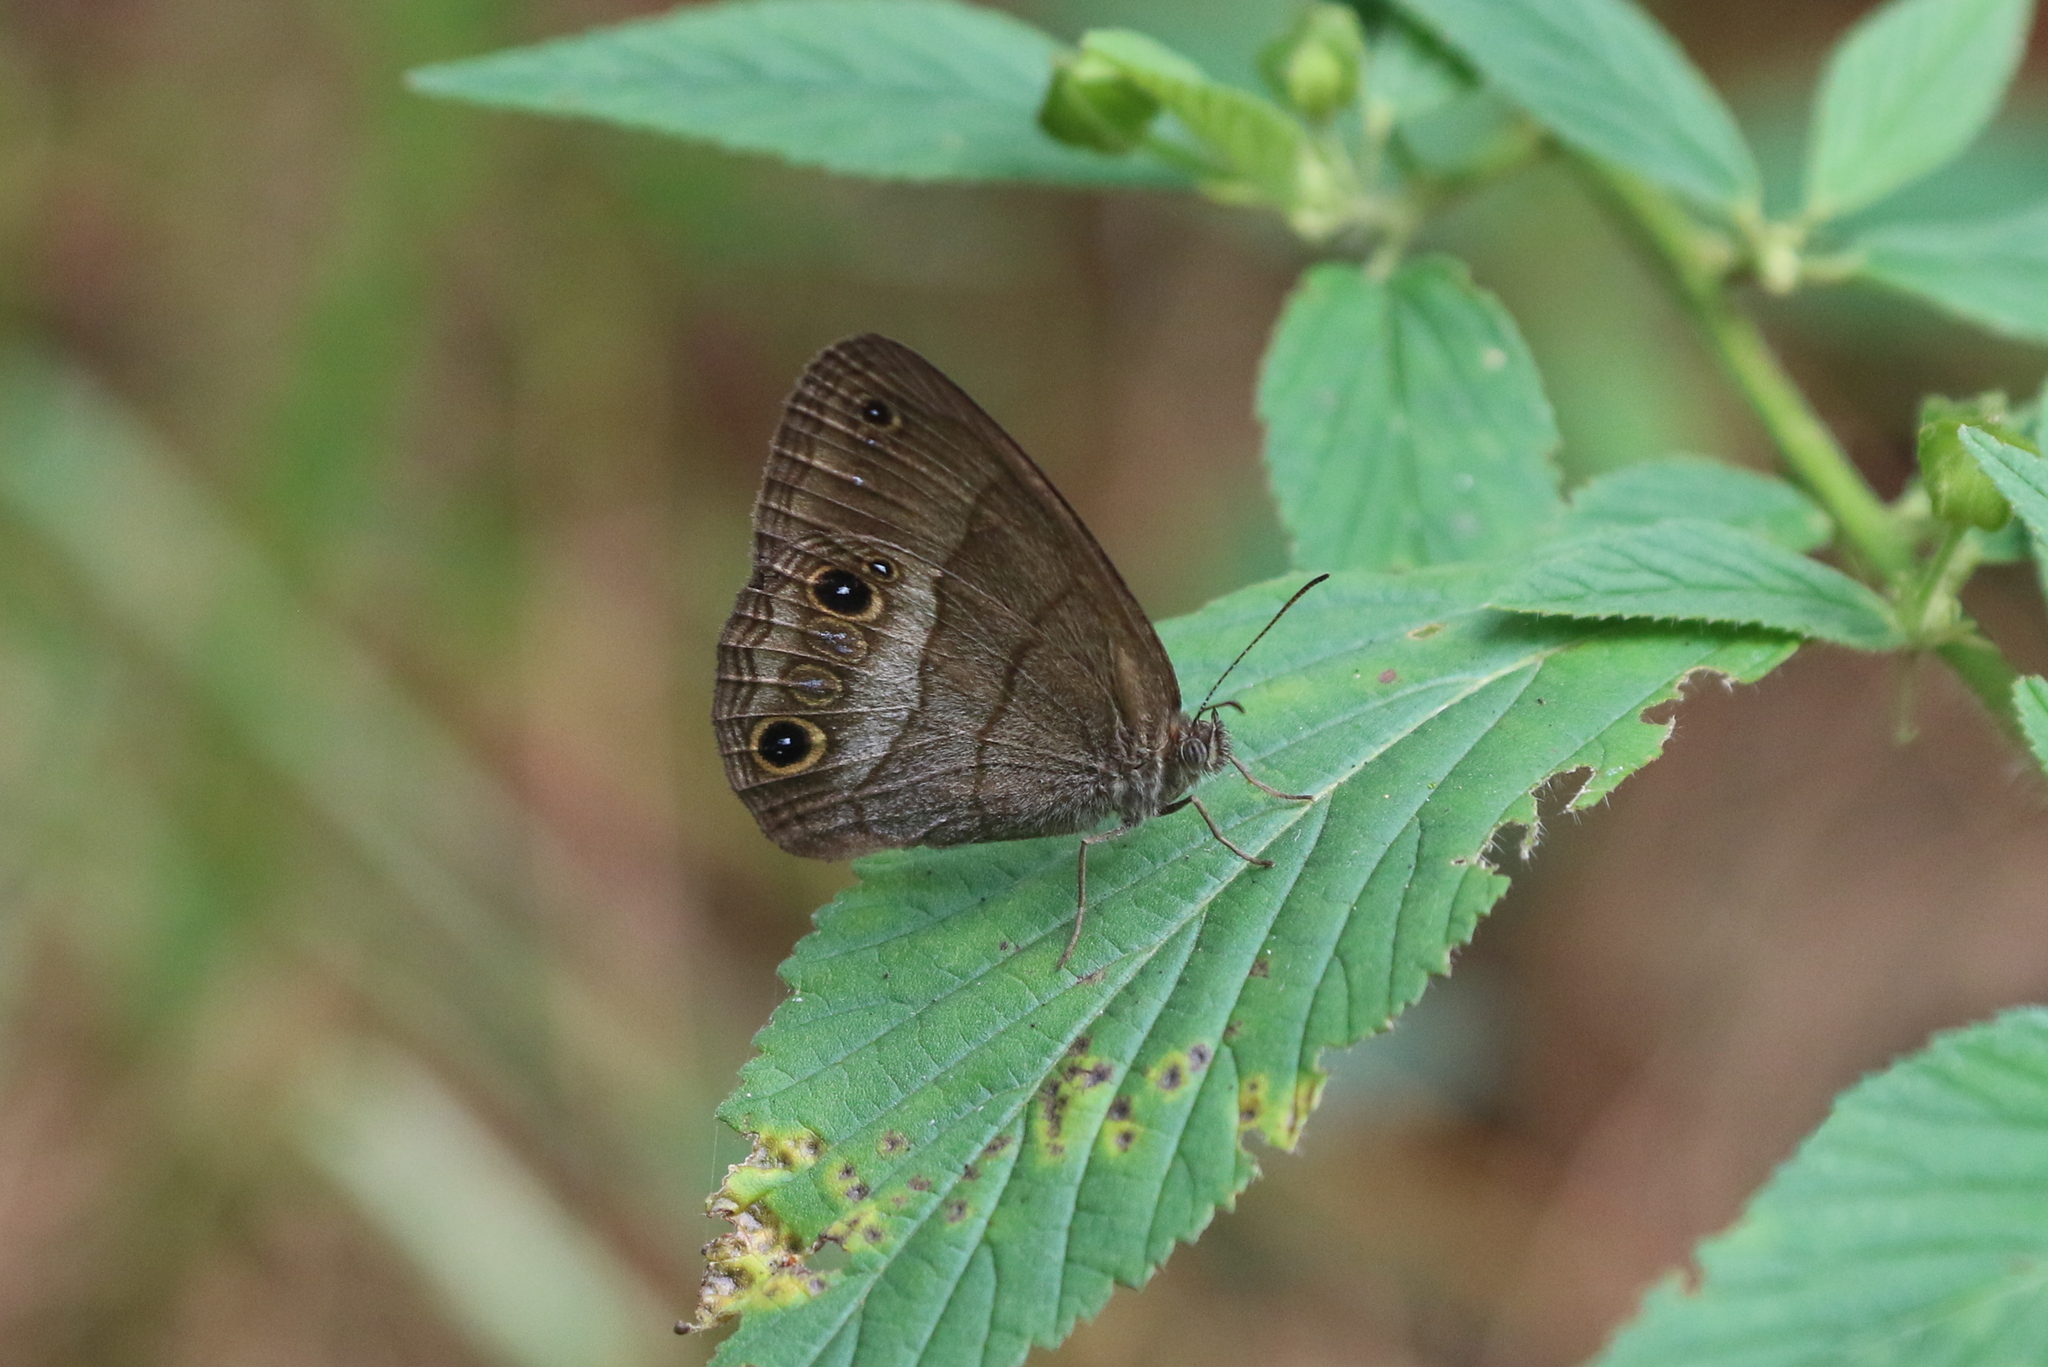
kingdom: Animalia
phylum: Arthropoda
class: Insecta
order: Lepidoptera
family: Nymphalidae
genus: Erichthodes
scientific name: Erichthodes
